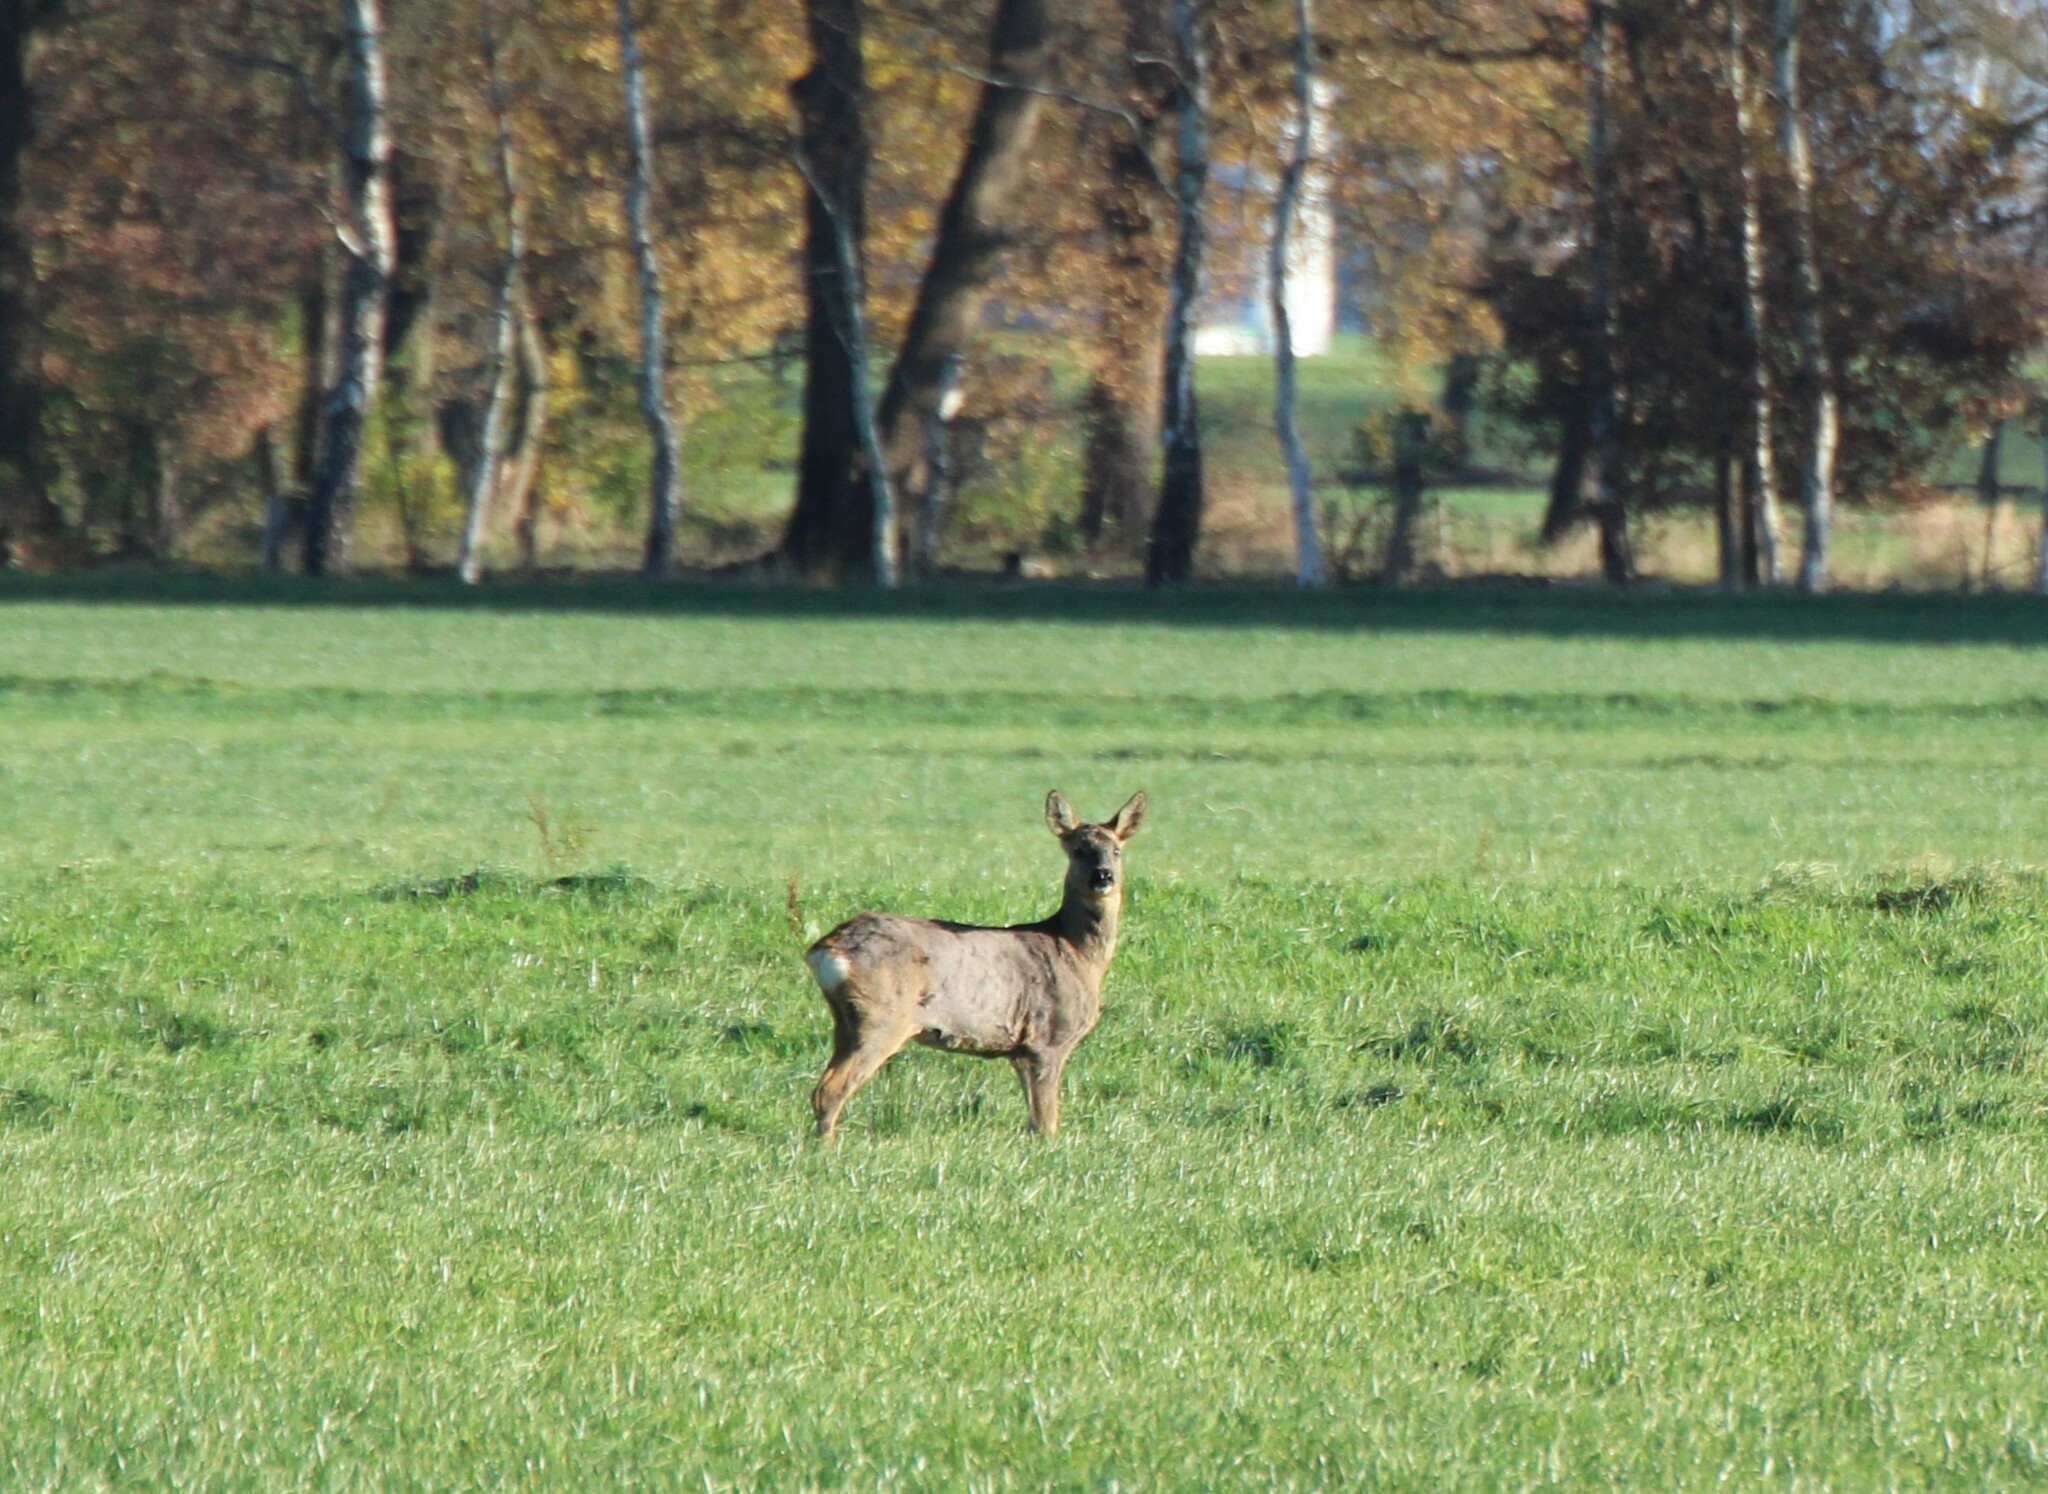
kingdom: Animalia
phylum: Chordata
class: Mammalia
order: Artiodactyla
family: Cervidae
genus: Capreolus
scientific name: Capreolus capreolus
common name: Western roe deer
